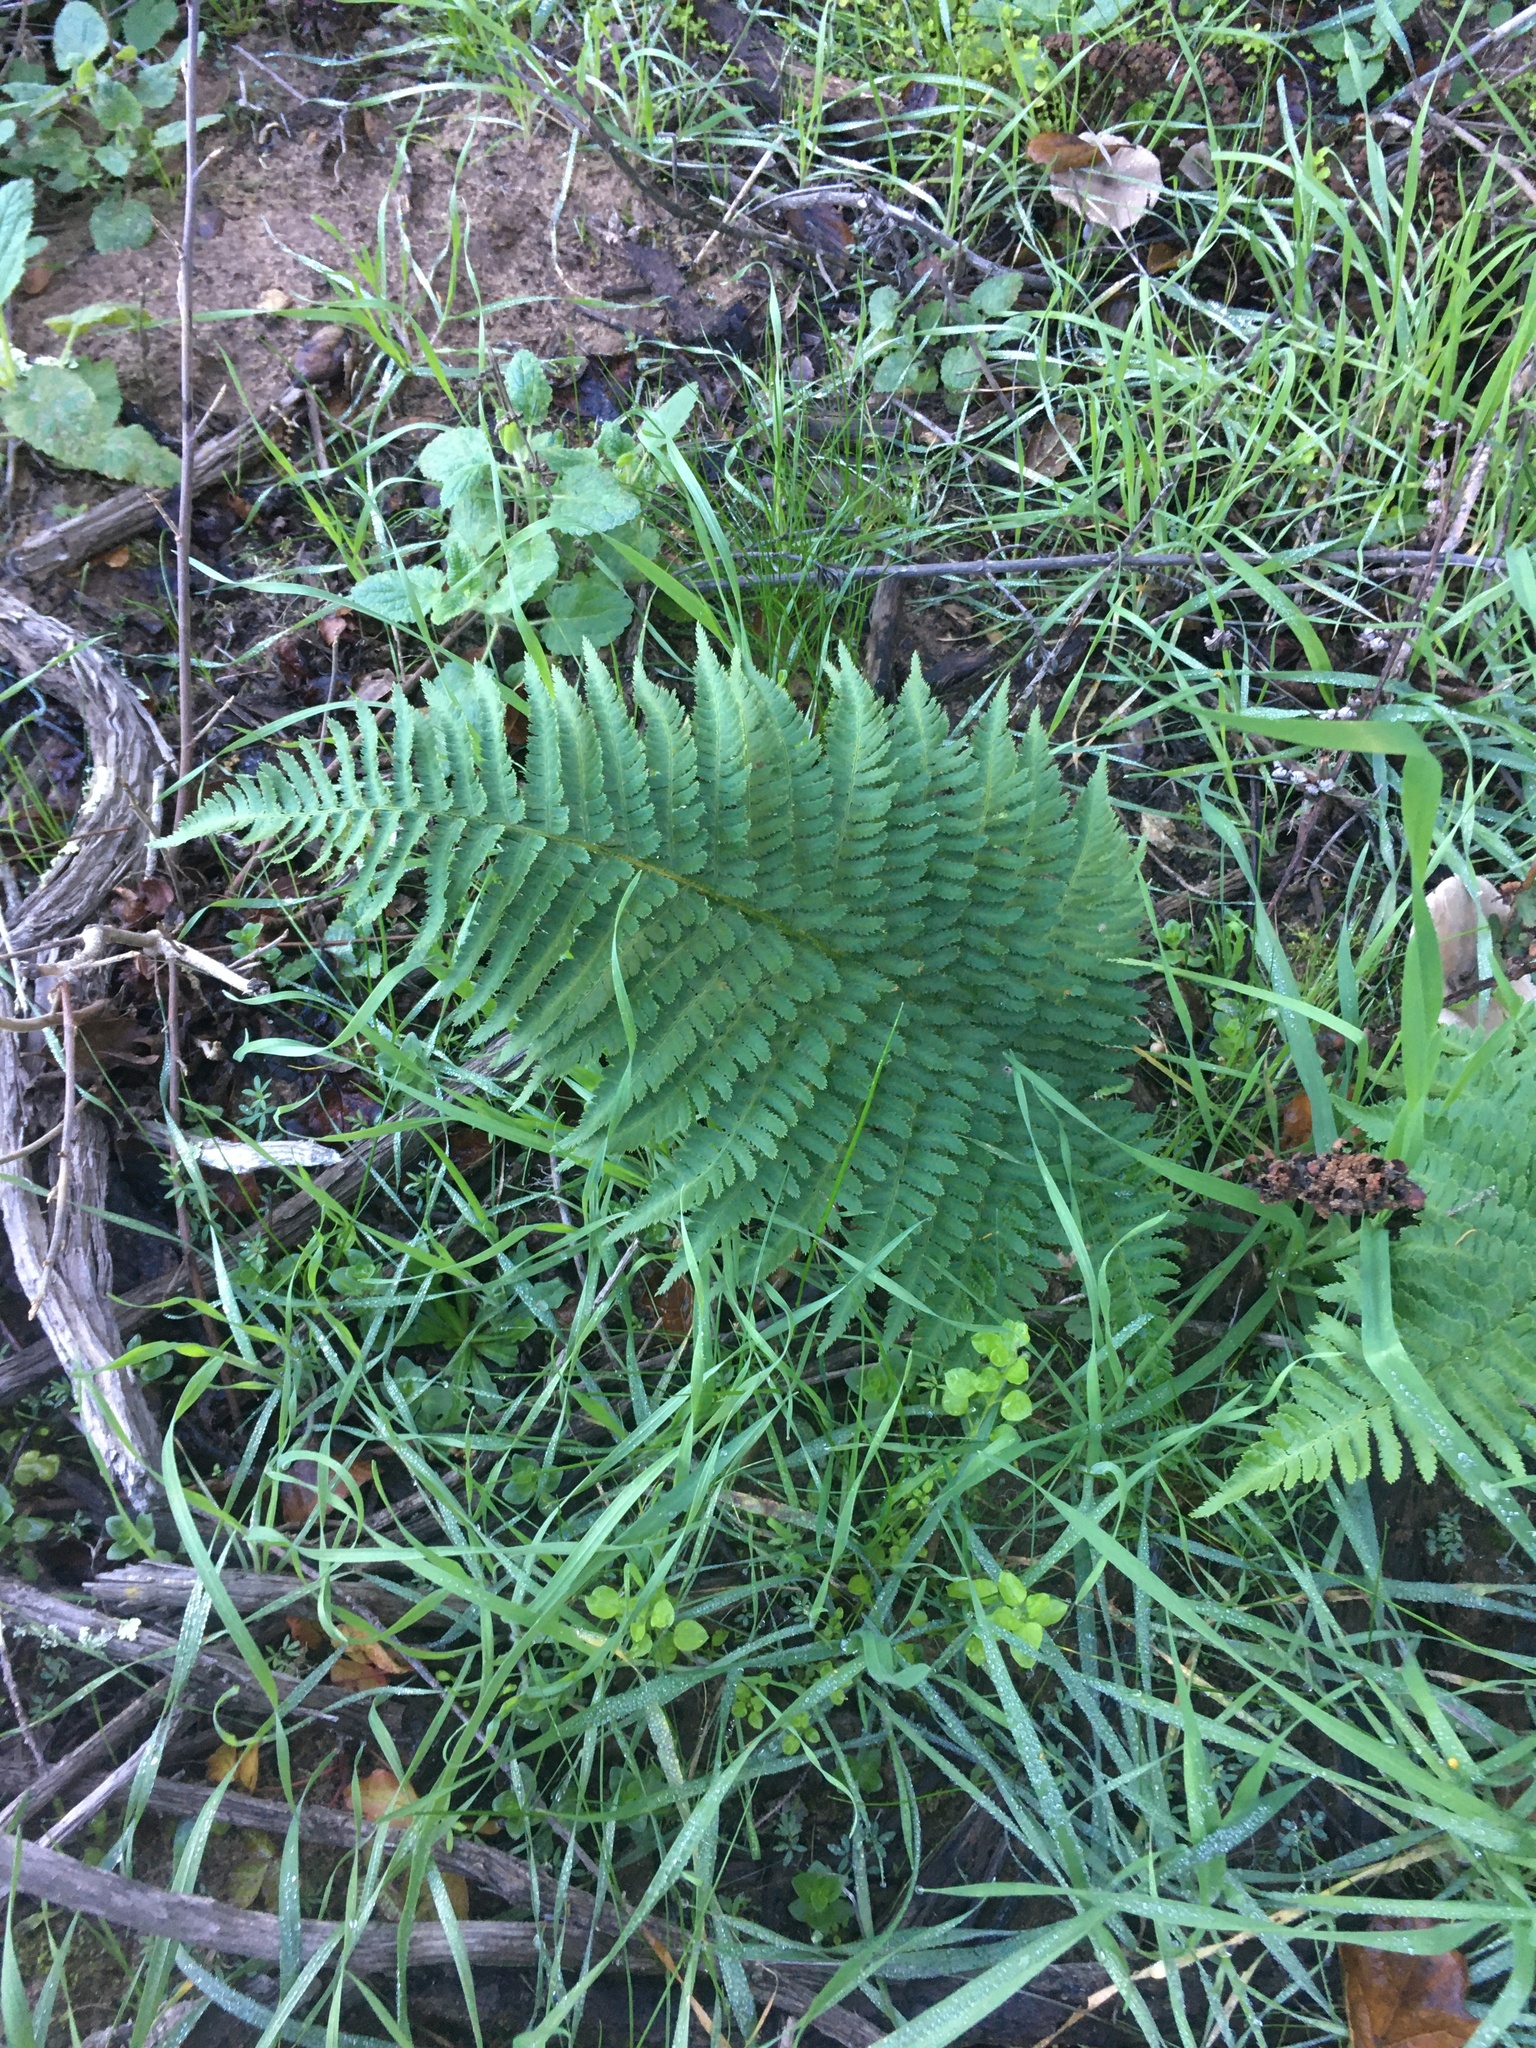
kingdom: Plantae
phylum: Tracheophyta
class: Polypodiopsida
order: Polypodiales
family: Dryopteridaceae
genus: Dryopteris
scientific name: Dryopteris arguta
